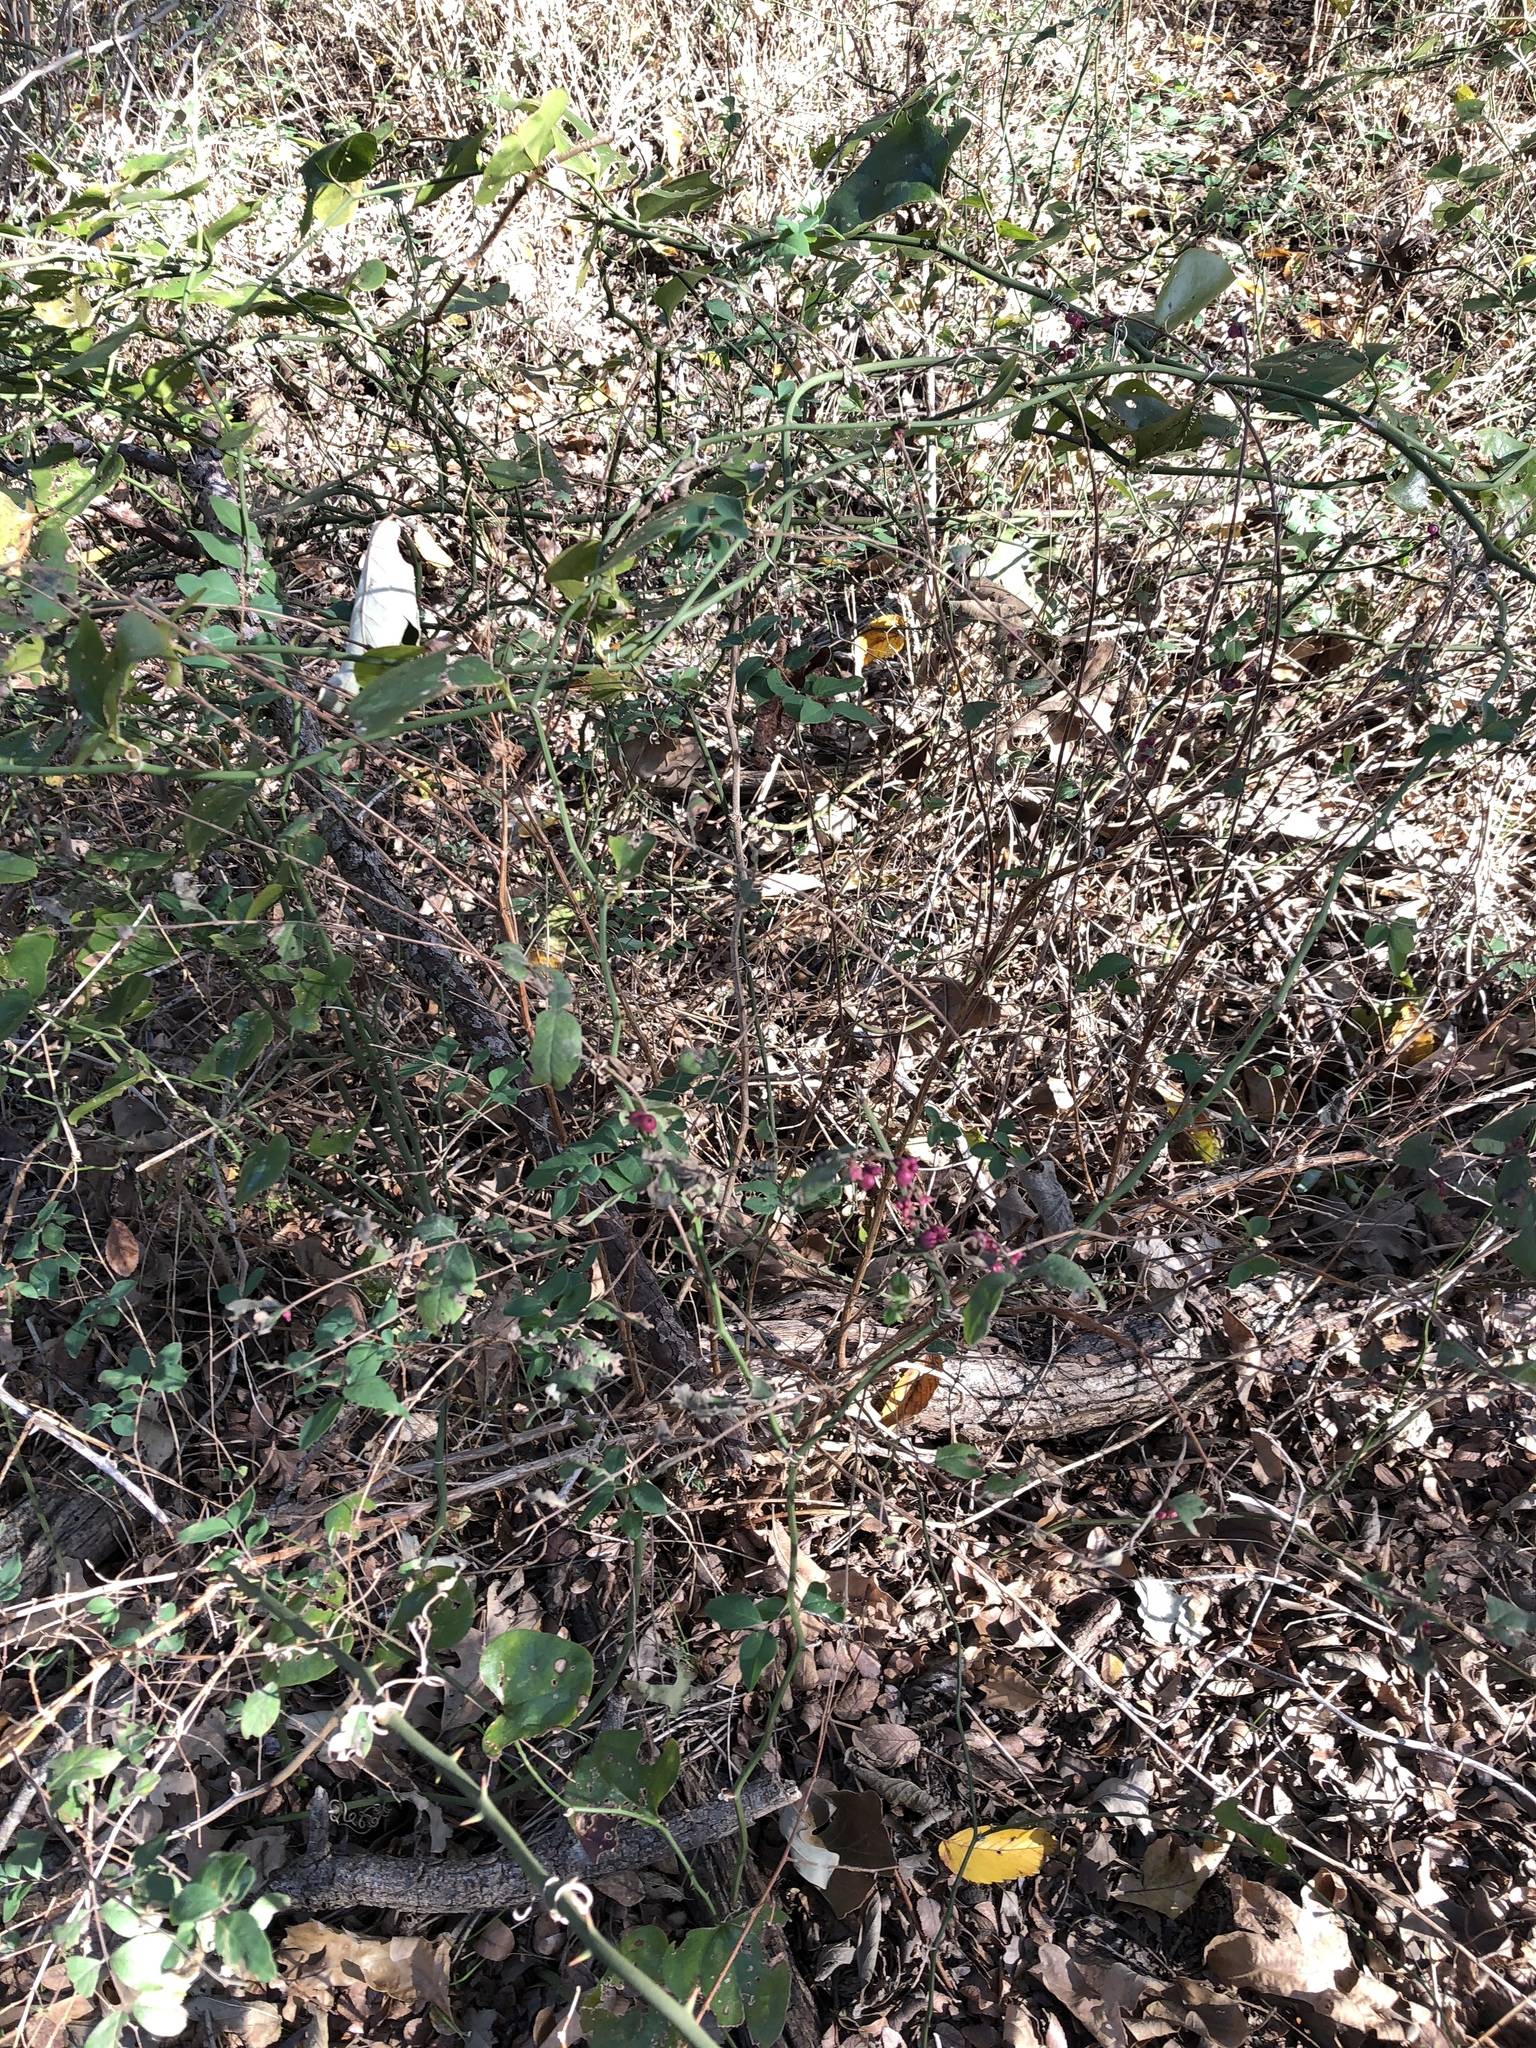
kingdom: Plantae
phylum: Tracheophyta
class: Magnoliopsida
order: Dipsacales
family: Caprifoliaceae
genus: Symphoricarpos
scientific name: Symphoricarpos orbiculatus
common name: Coralberry
